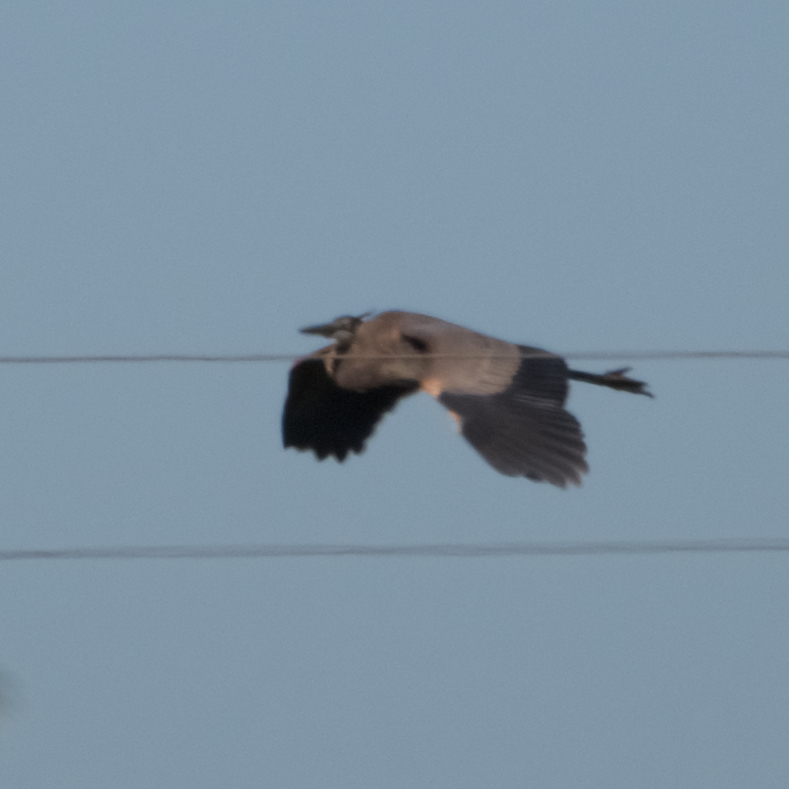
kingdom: Animalia
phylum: Chordata
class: Aves
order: Pelecaniformes
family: Ardeidae
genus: Ardea
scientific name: Ardea herodias
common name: Great blue heron
